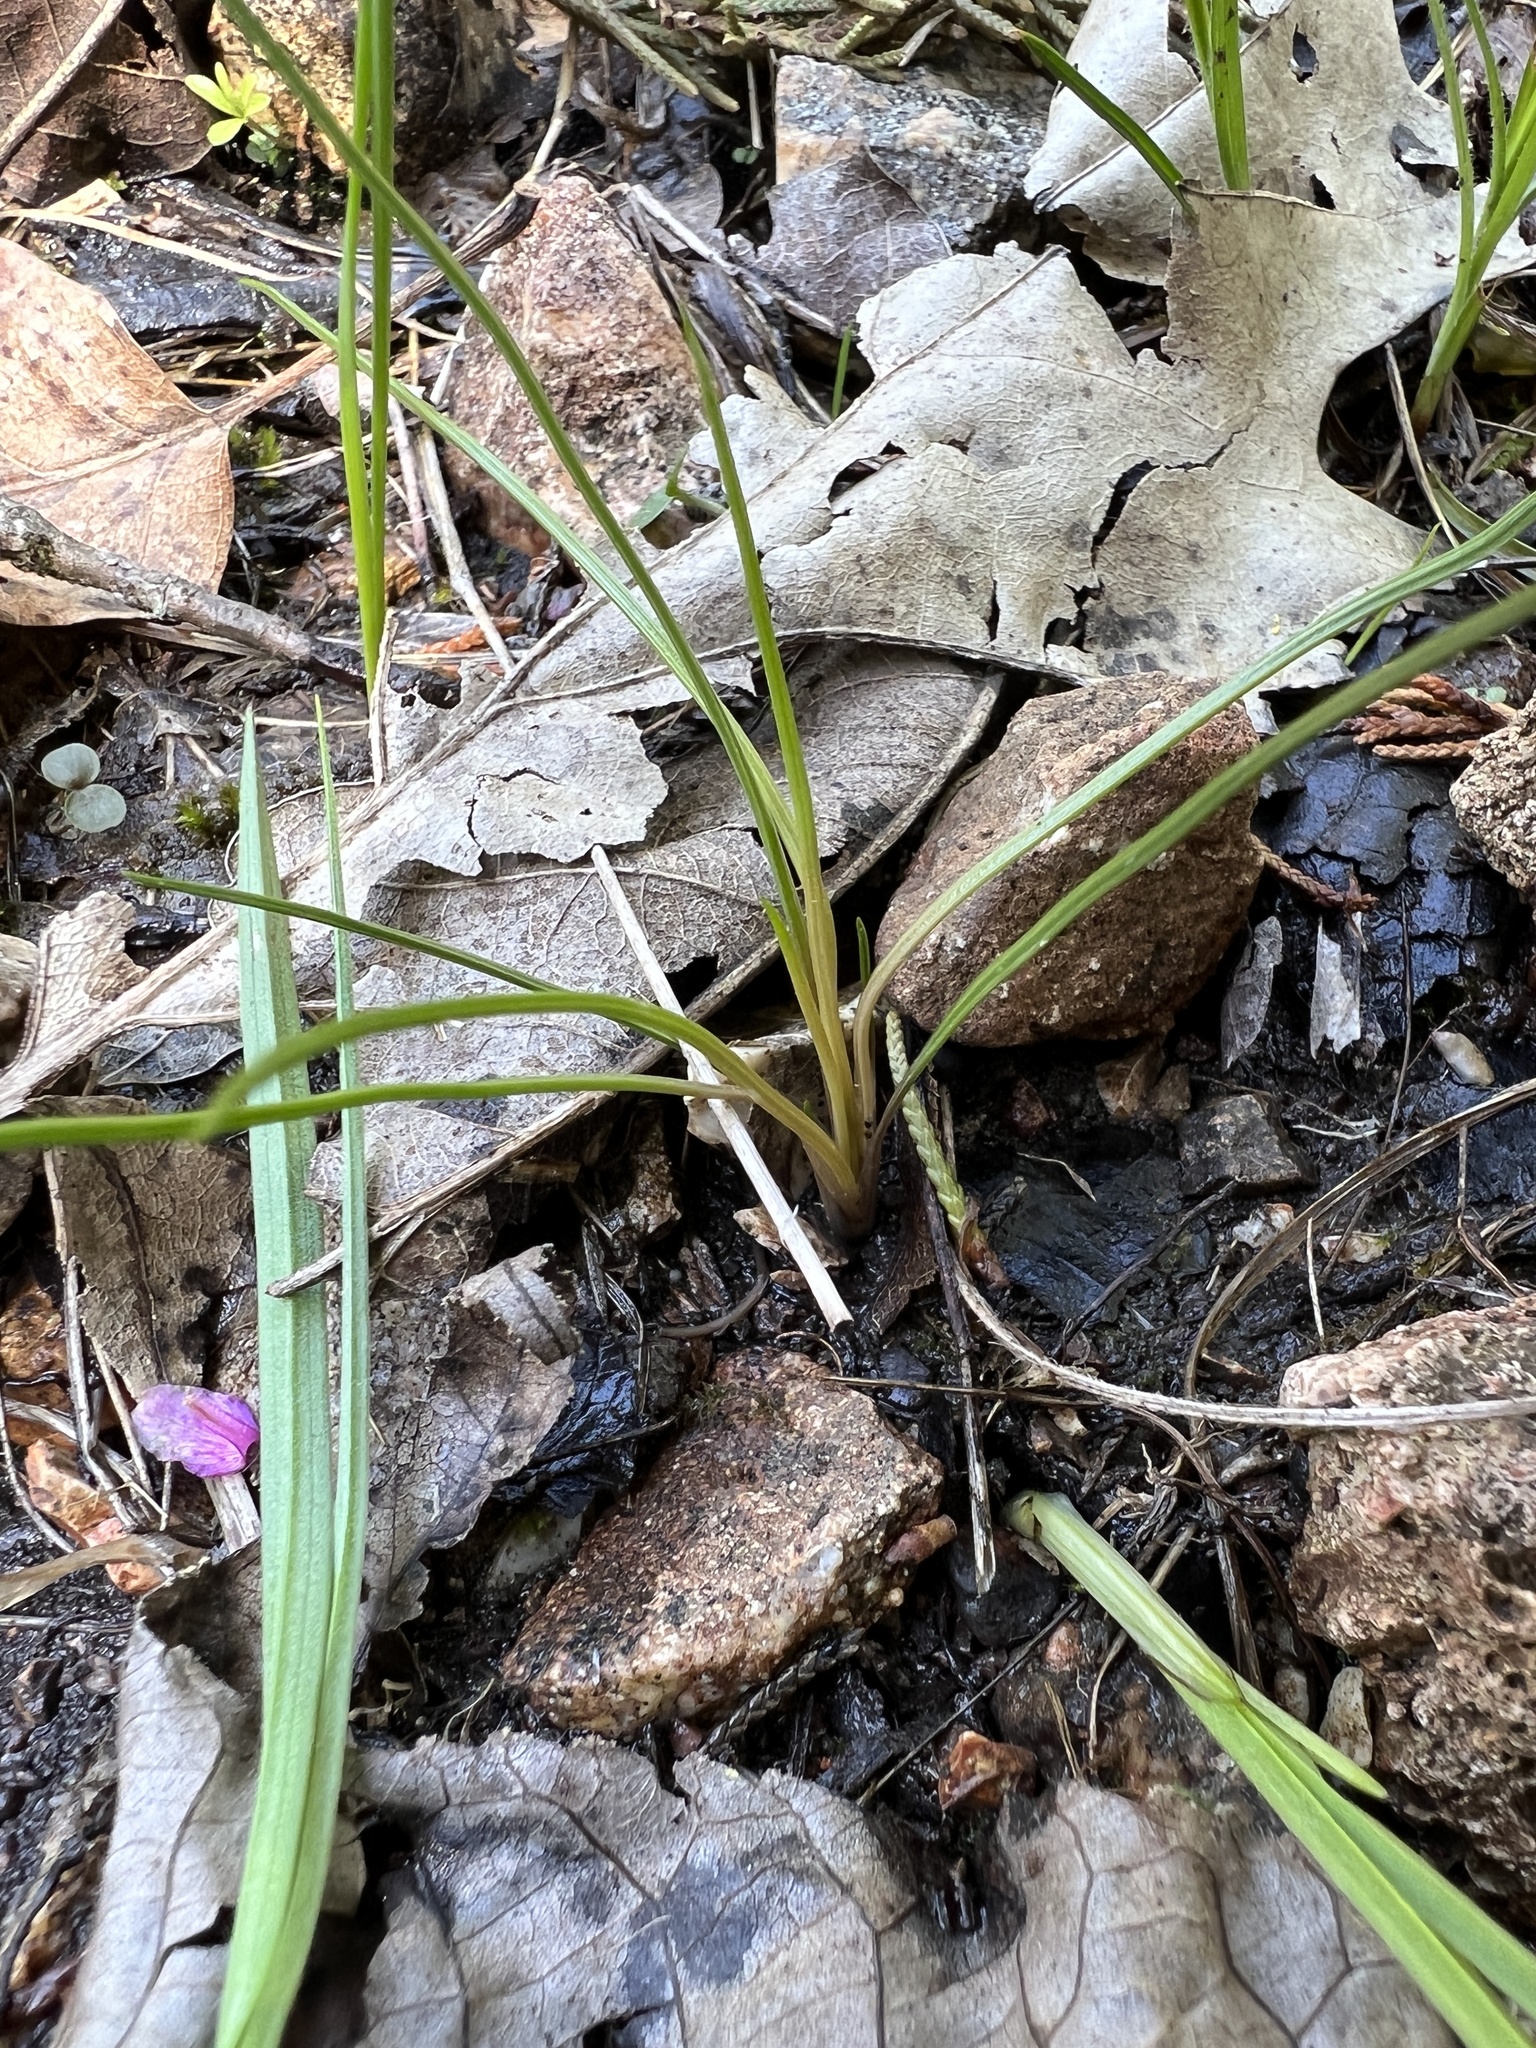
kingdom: Plantae
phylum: Tracheophyta
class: Lycopodiopsida
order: Isoetales
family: Isoetaceae
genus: Isoetes
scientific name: Isoetes butleri
